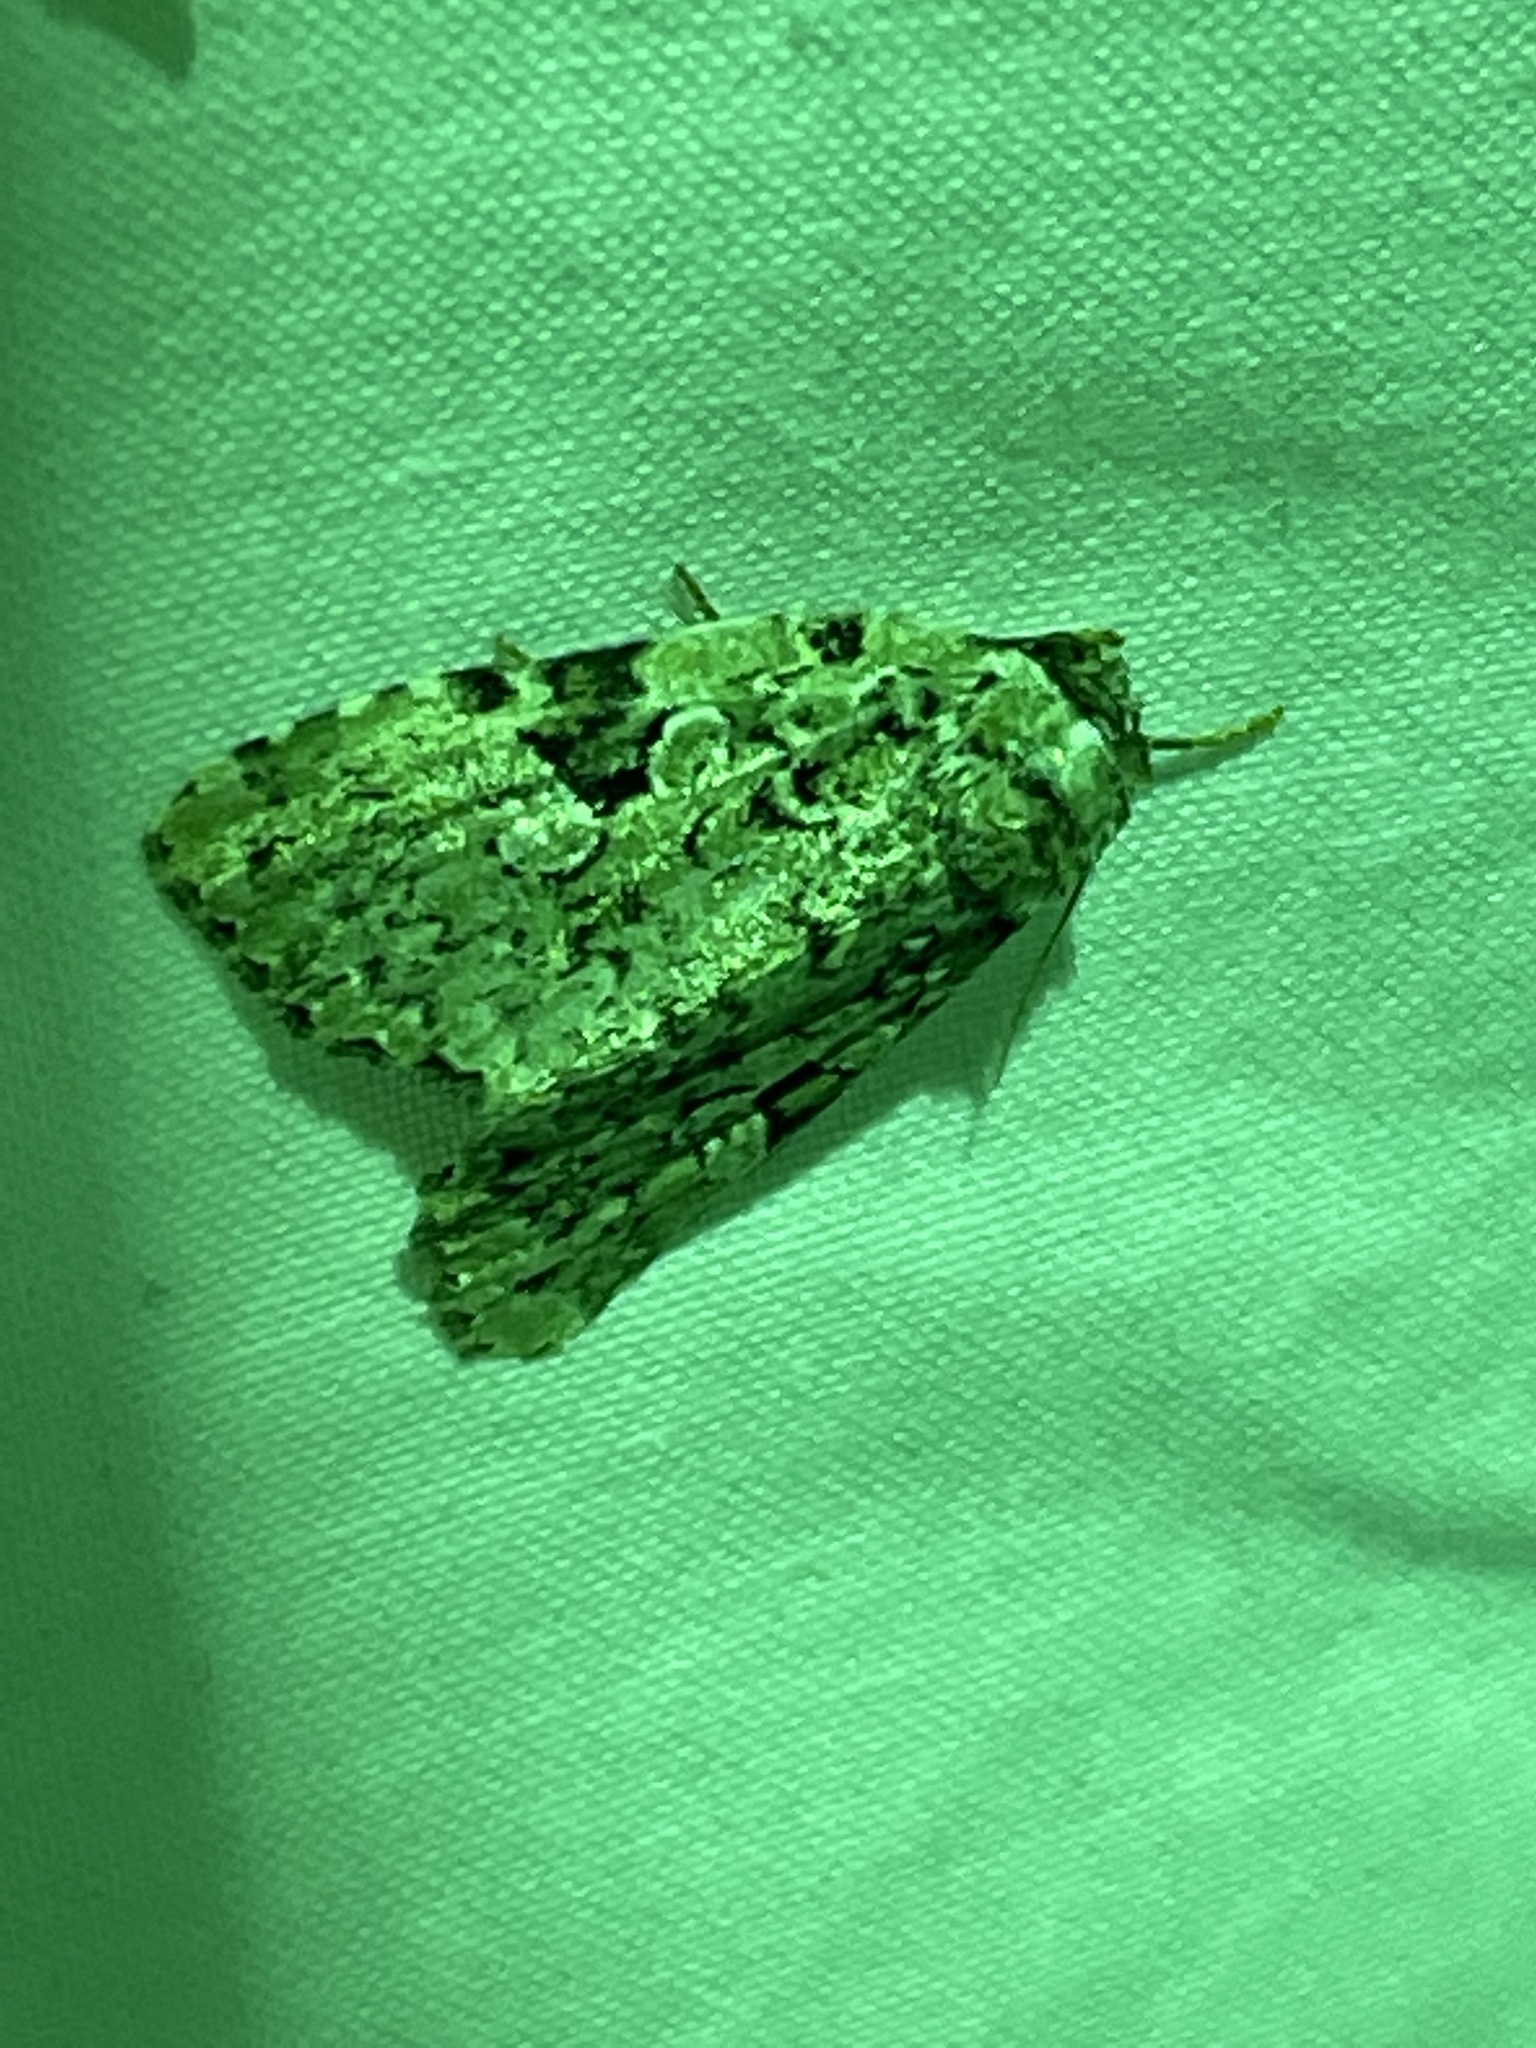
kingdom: Animalia
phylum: Arthropoda
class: Insecta
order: Lepidoptera
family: Noctuidae
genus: Leuconycta
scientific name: Leuconycta diphteroides
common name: Green leuconycta moth
